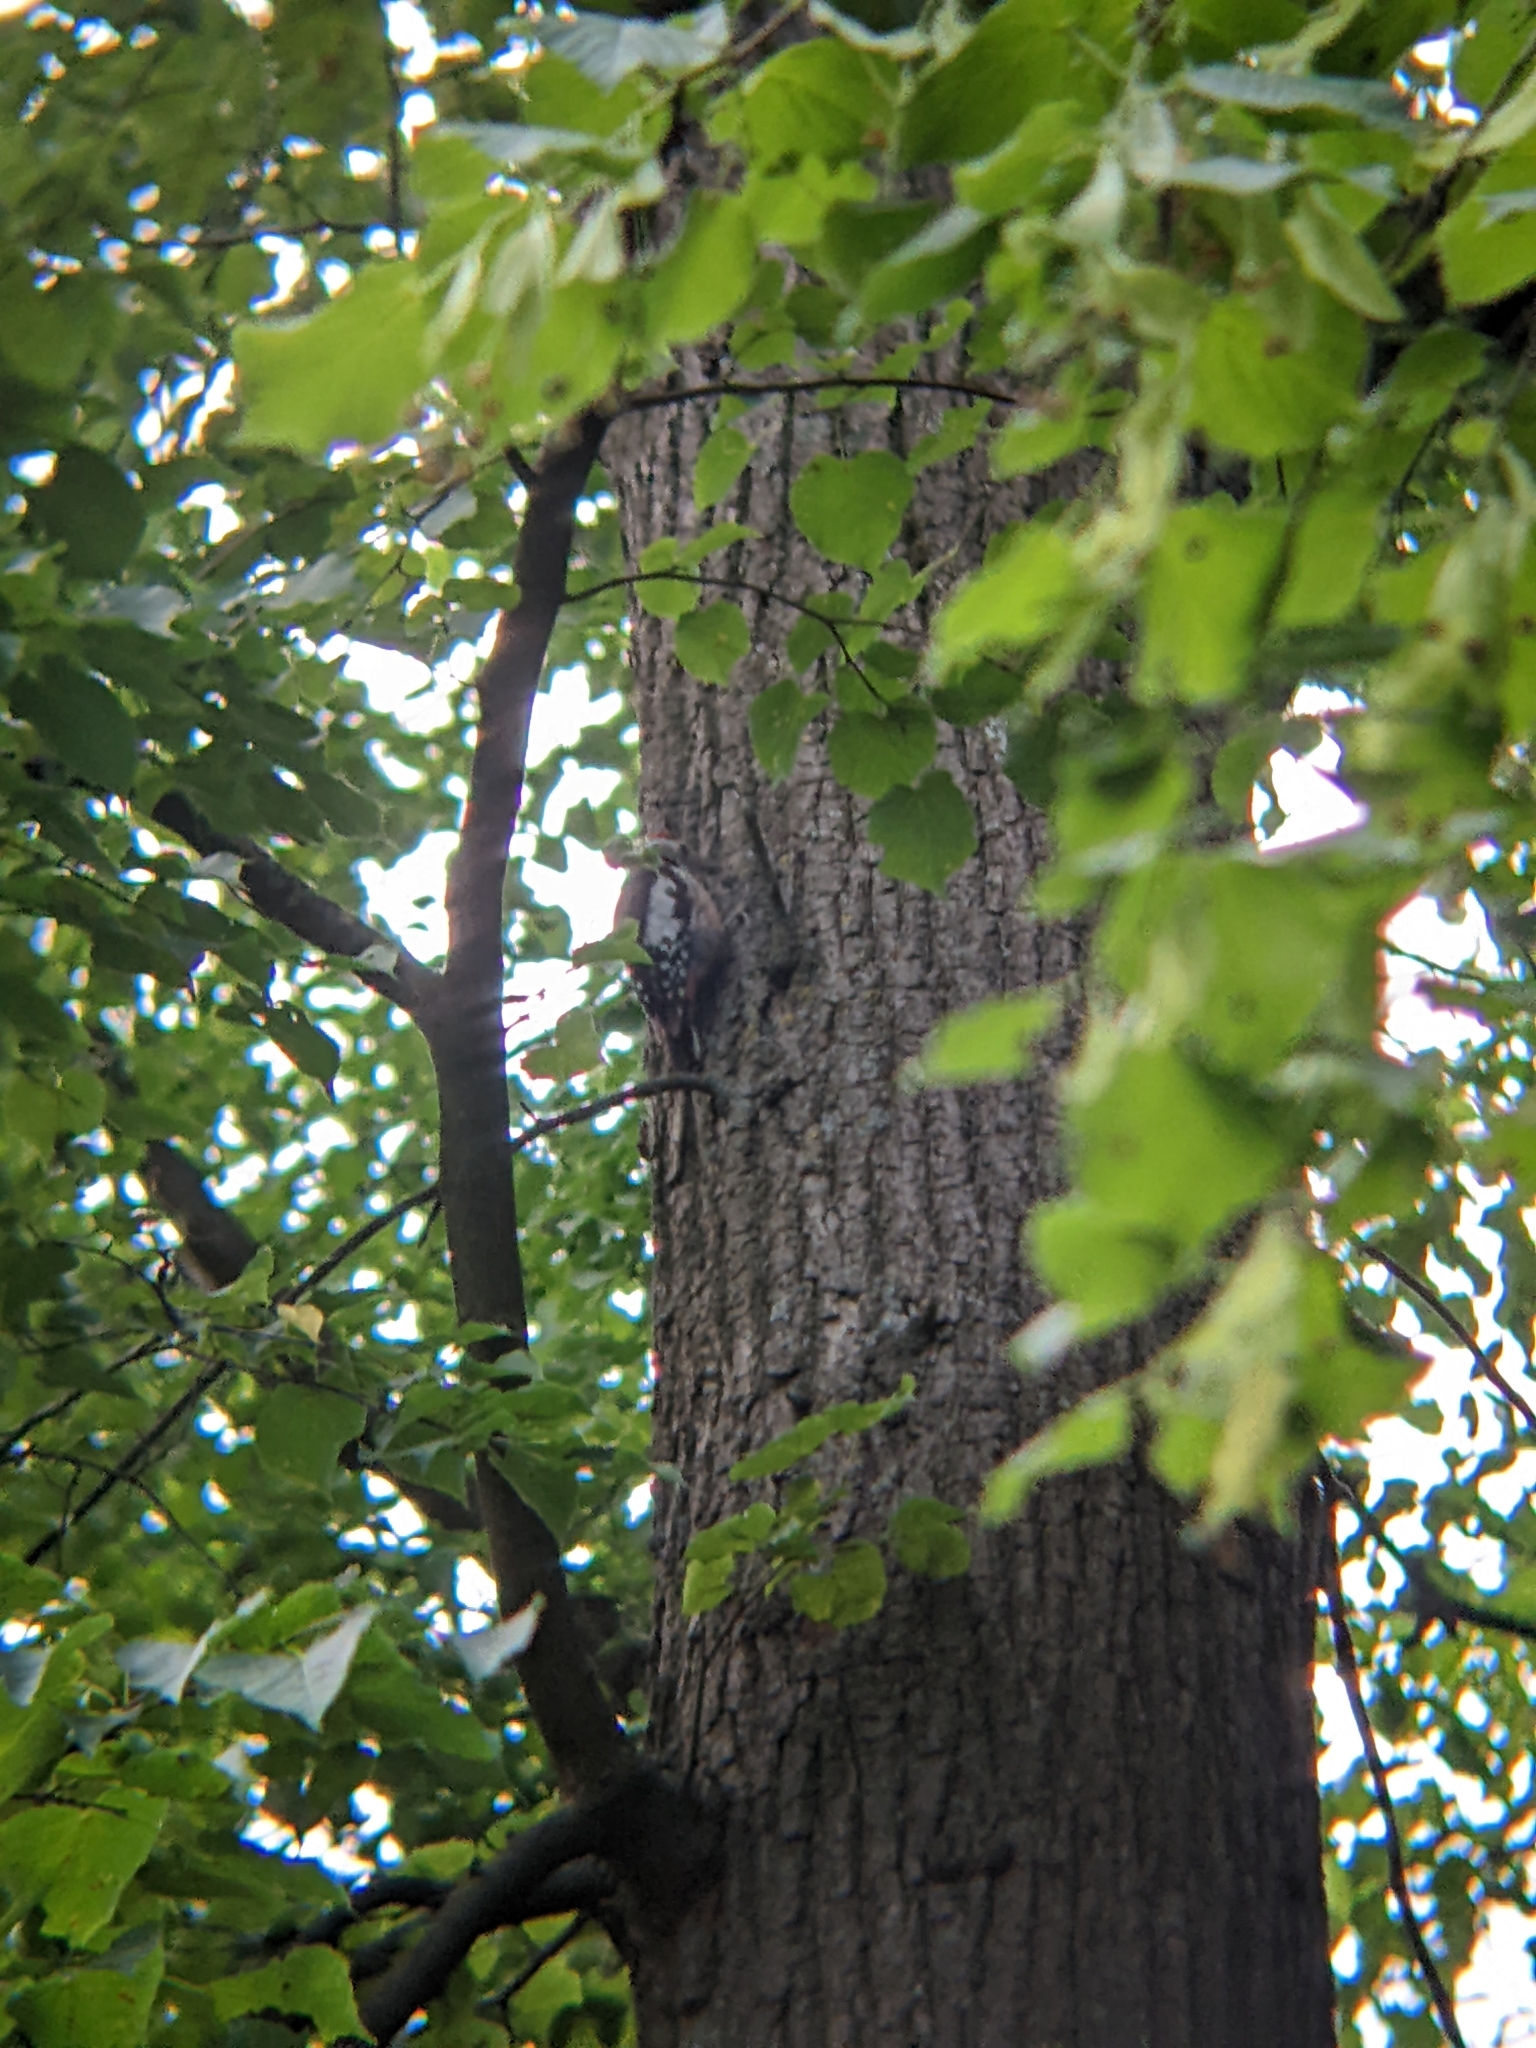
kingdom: Animalia
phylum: Chordata
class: Aves
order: Piciformes
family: Picidae
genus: Dendrocoptes
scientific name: Dendrocoptes medius
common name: Middle spotted woodpecker
